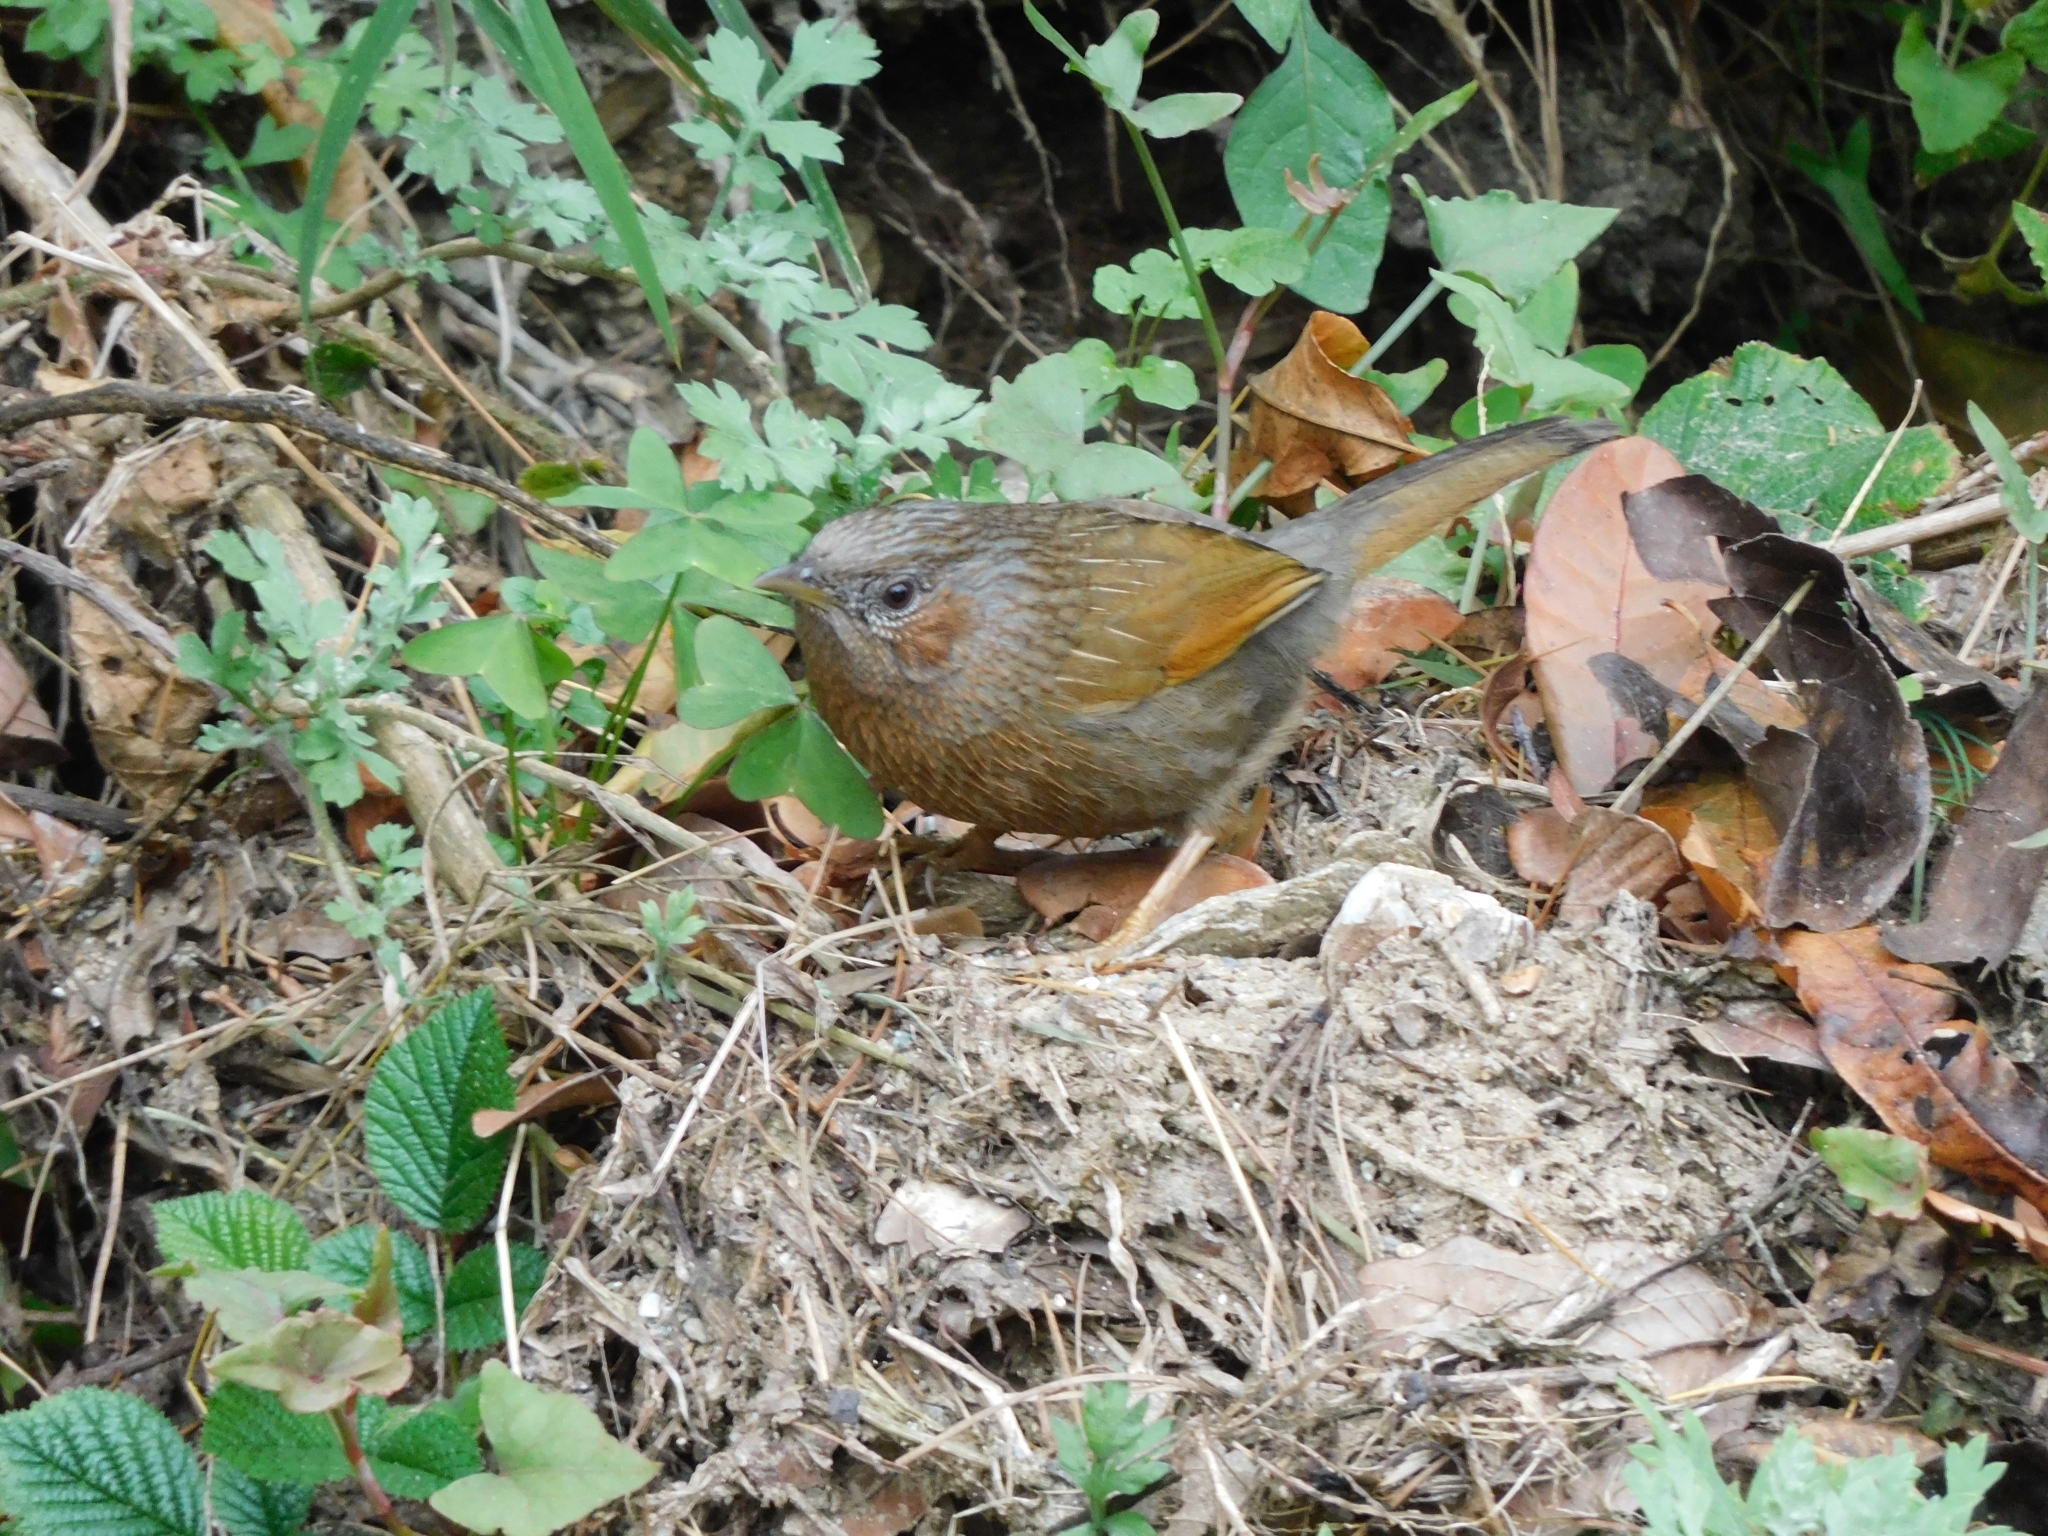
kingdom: Animalia
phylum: Chordata
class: Aves
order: Passeriformes
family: Leiothrichidae
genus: Trochalopteron
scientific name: Trochalopteron lineatum
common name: Streaked laughingthrush
